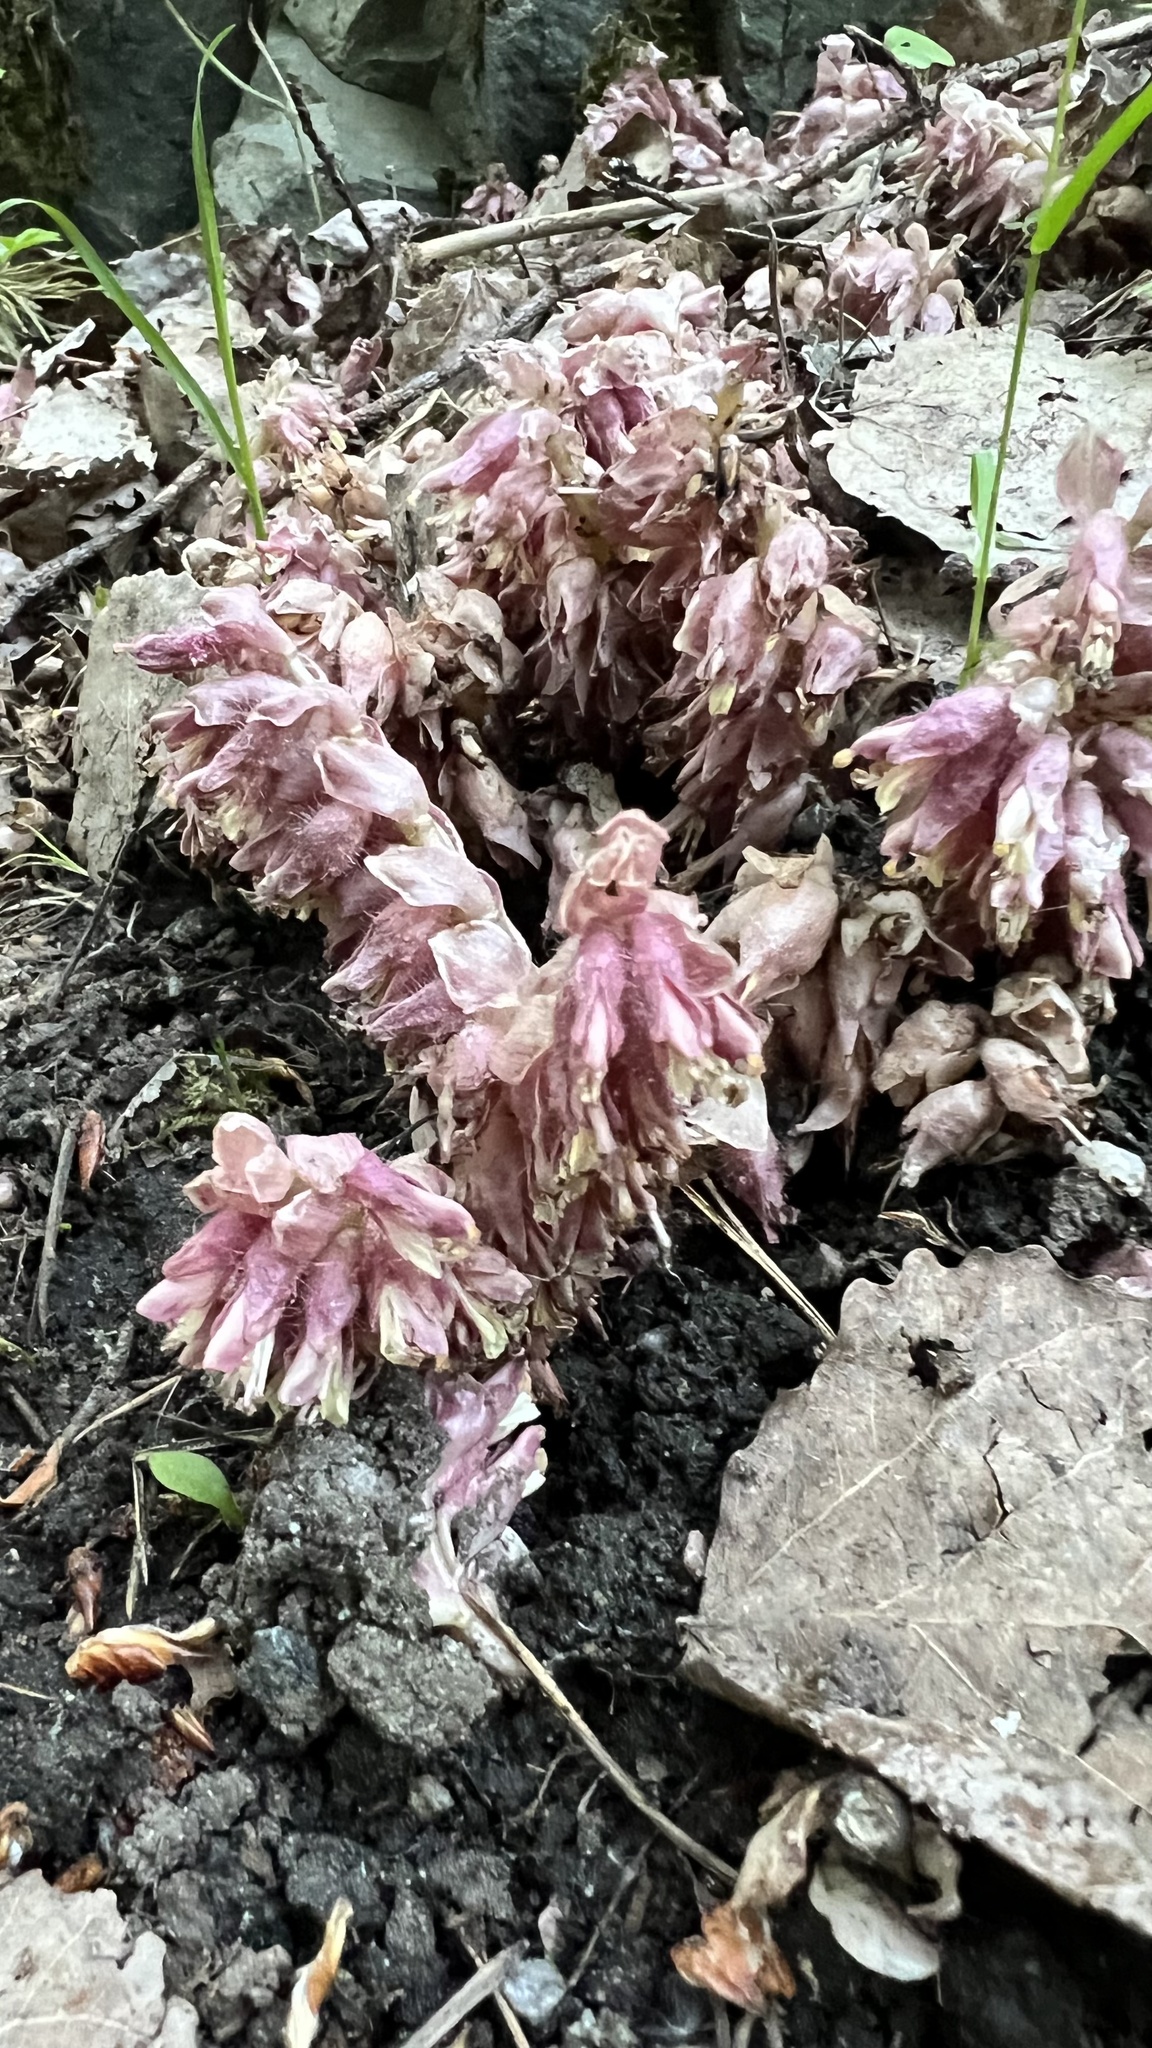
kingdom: Plantae
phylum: Tracheophyta
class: Magnoliopsida
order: Lamiales
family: Orobanchaceae
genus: Lathraea
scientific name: Lathraea squamaria
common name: Toothwort
